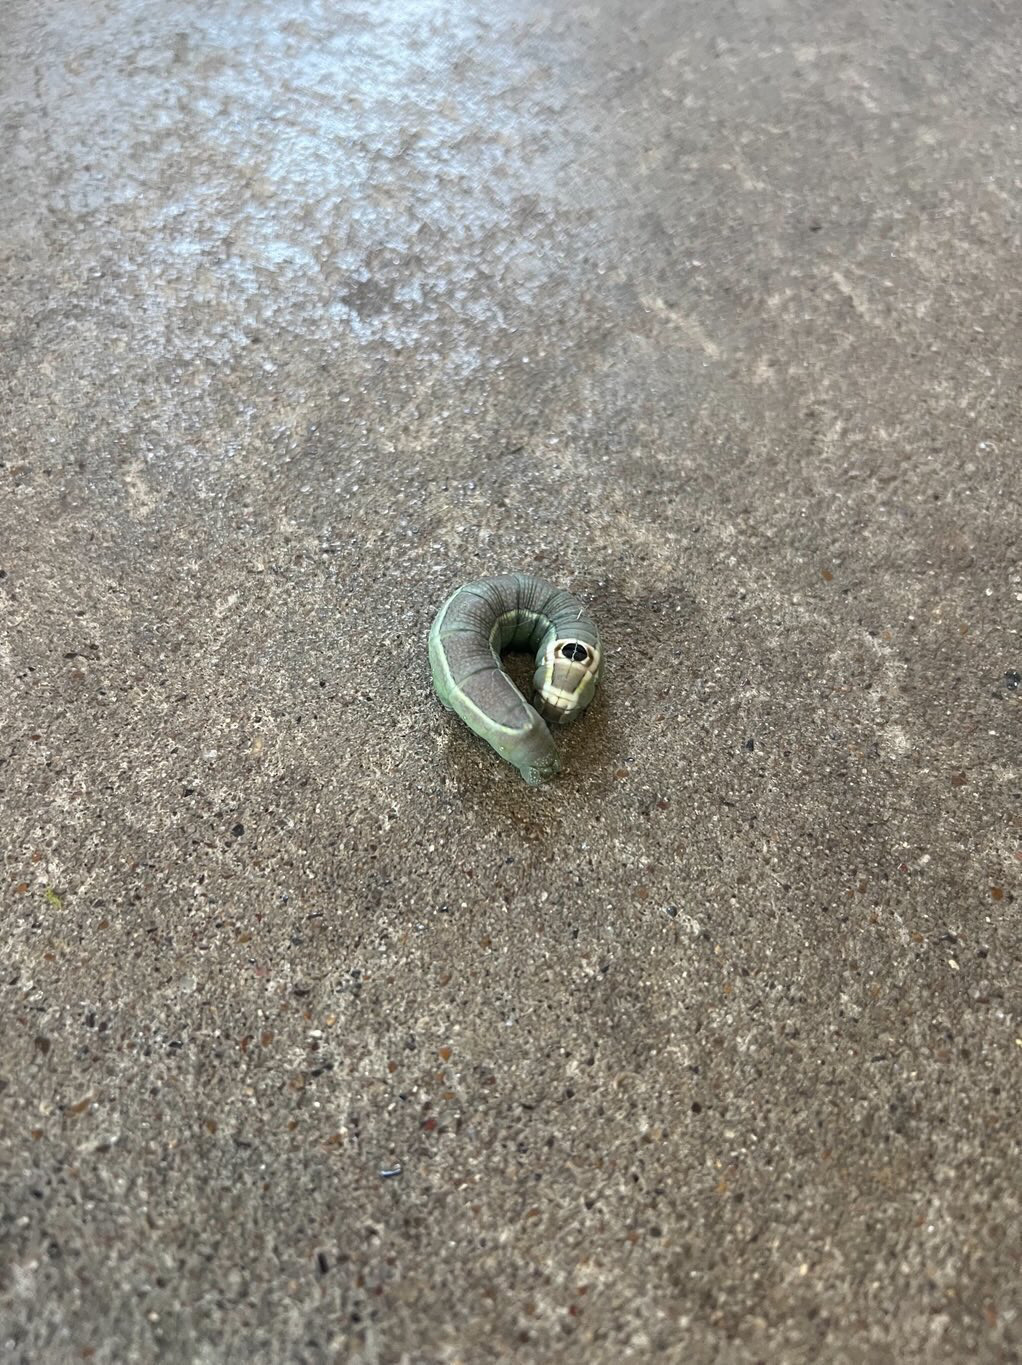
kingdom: Animalia
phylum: Arthropoda
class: Insecta
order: Lepidoptera
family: Sphingidae
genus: Erinnyis
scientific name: Erinnyis ello
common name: Ello sphinx
